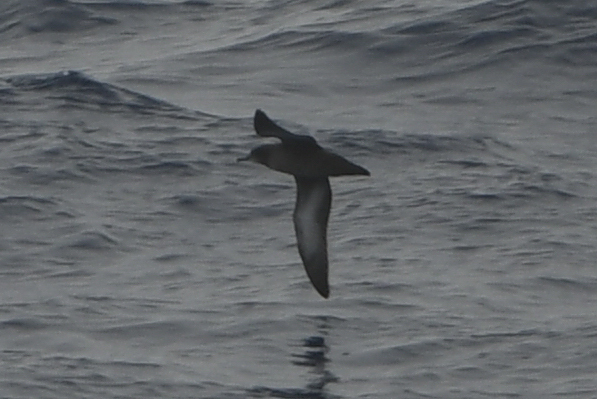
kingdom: Animalia
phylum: Chordata
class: Aves
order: Procellariiformes
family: Procellariidae
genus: Puffinus
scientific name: Puffinus griseus
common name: Sooty shearwater
